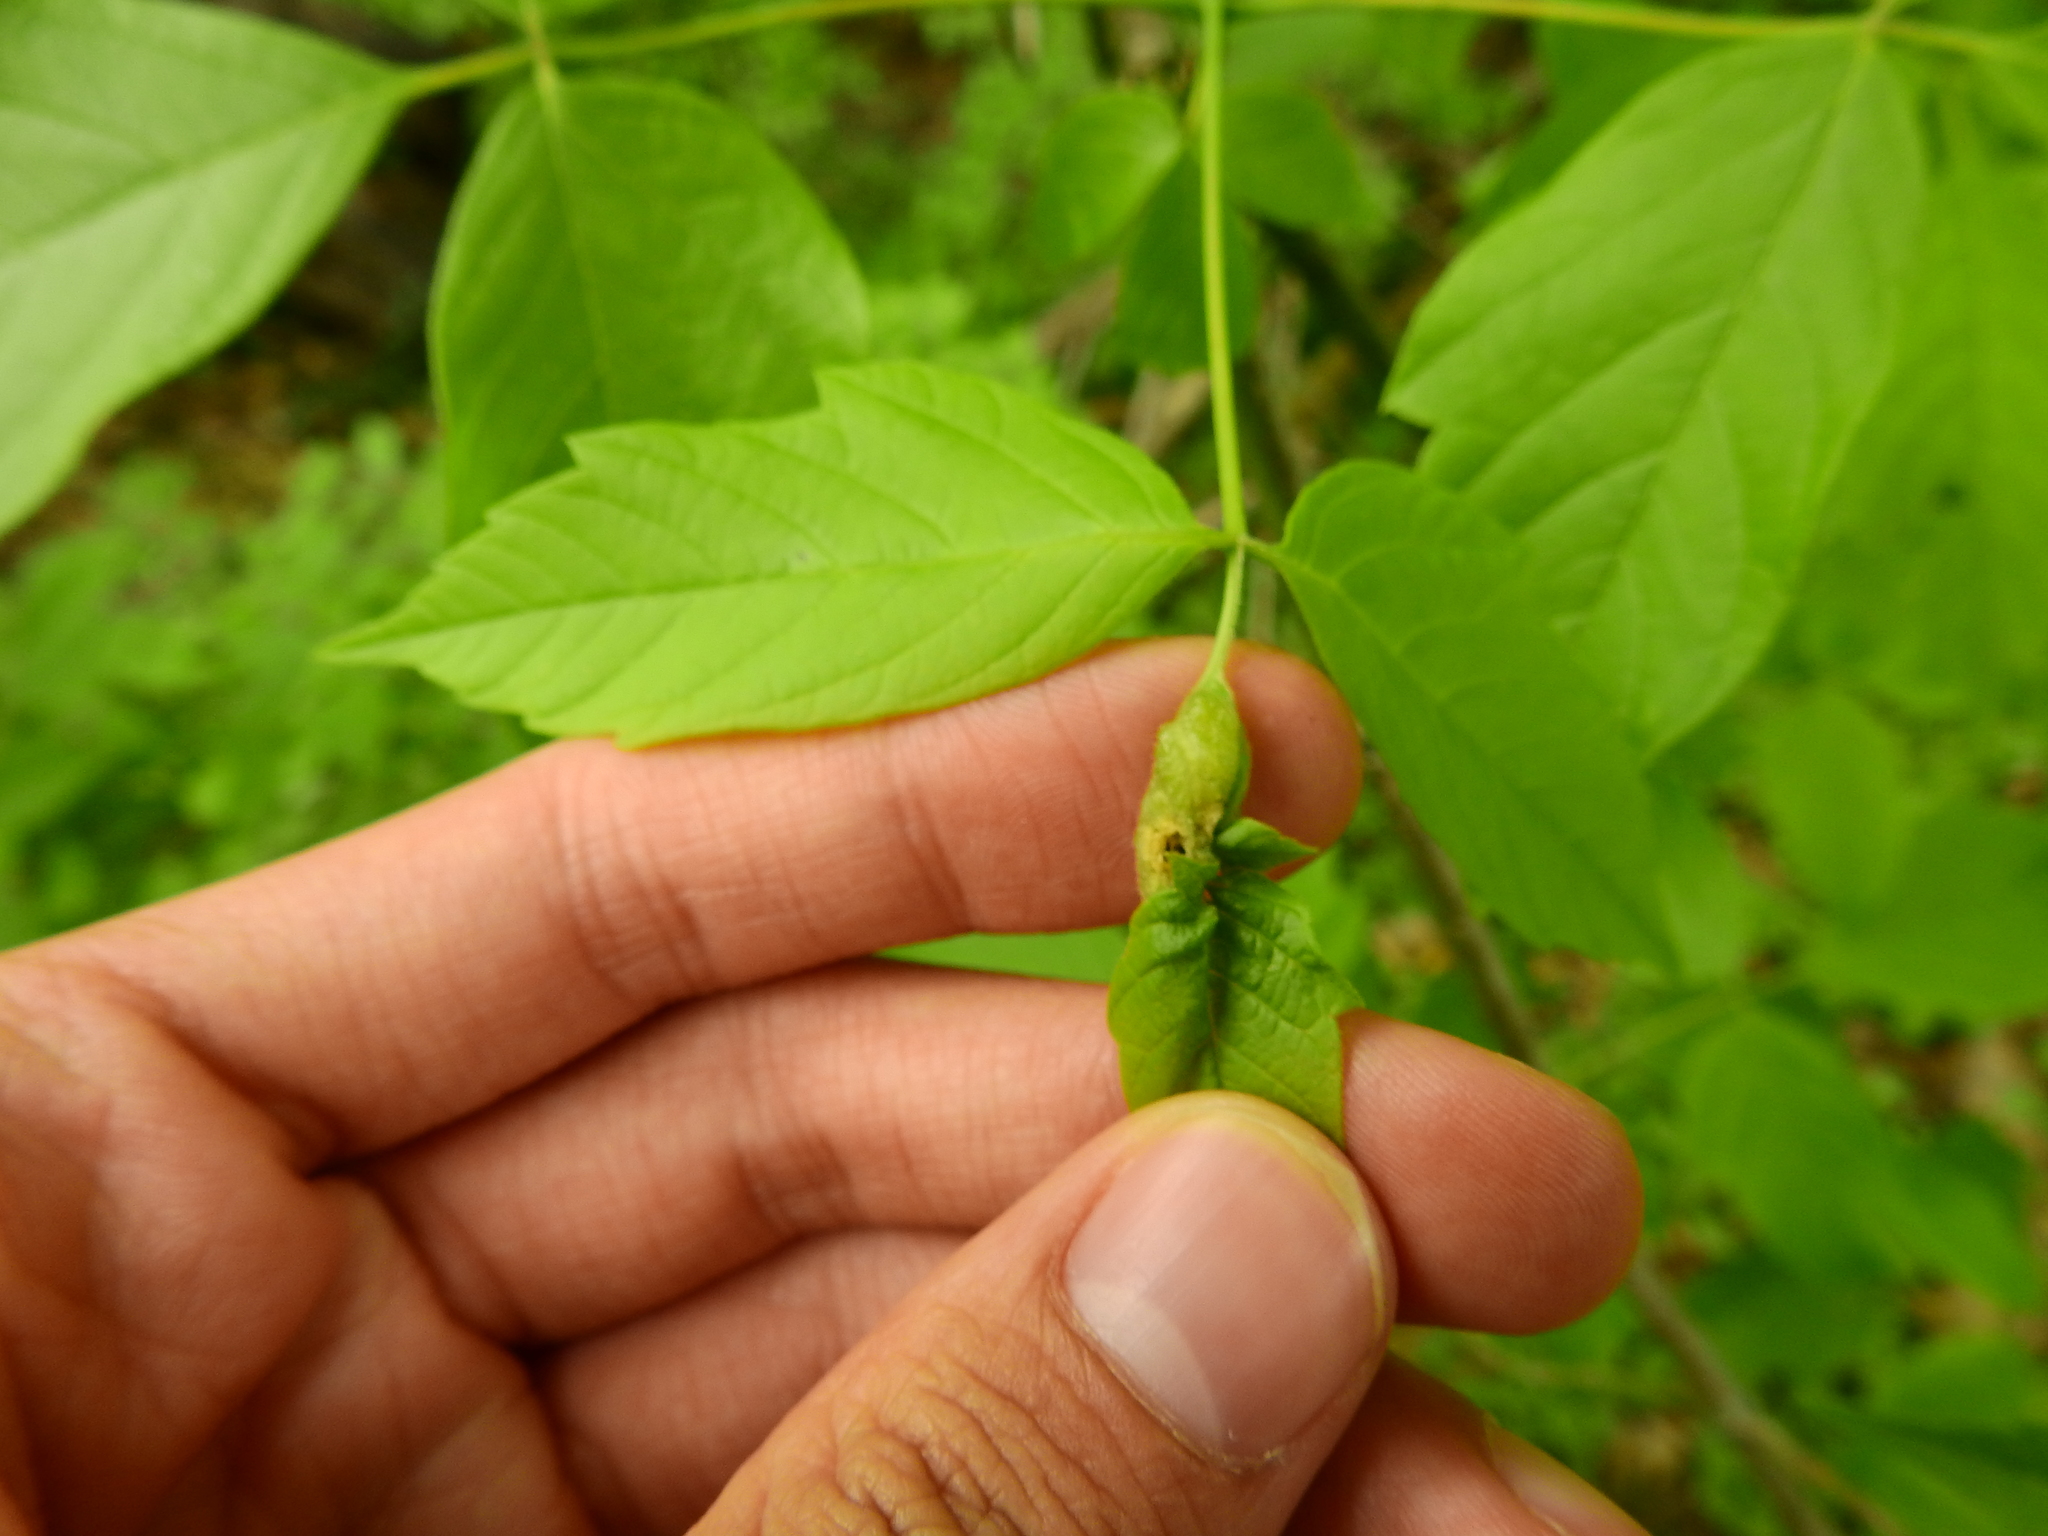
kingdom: Animalia
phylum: Arthropoda
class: Insecta
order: Diptera
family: Cecidomyiidae
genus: Contarinia
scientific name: Contarinia negundinis
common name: Boxelder budgall midge
